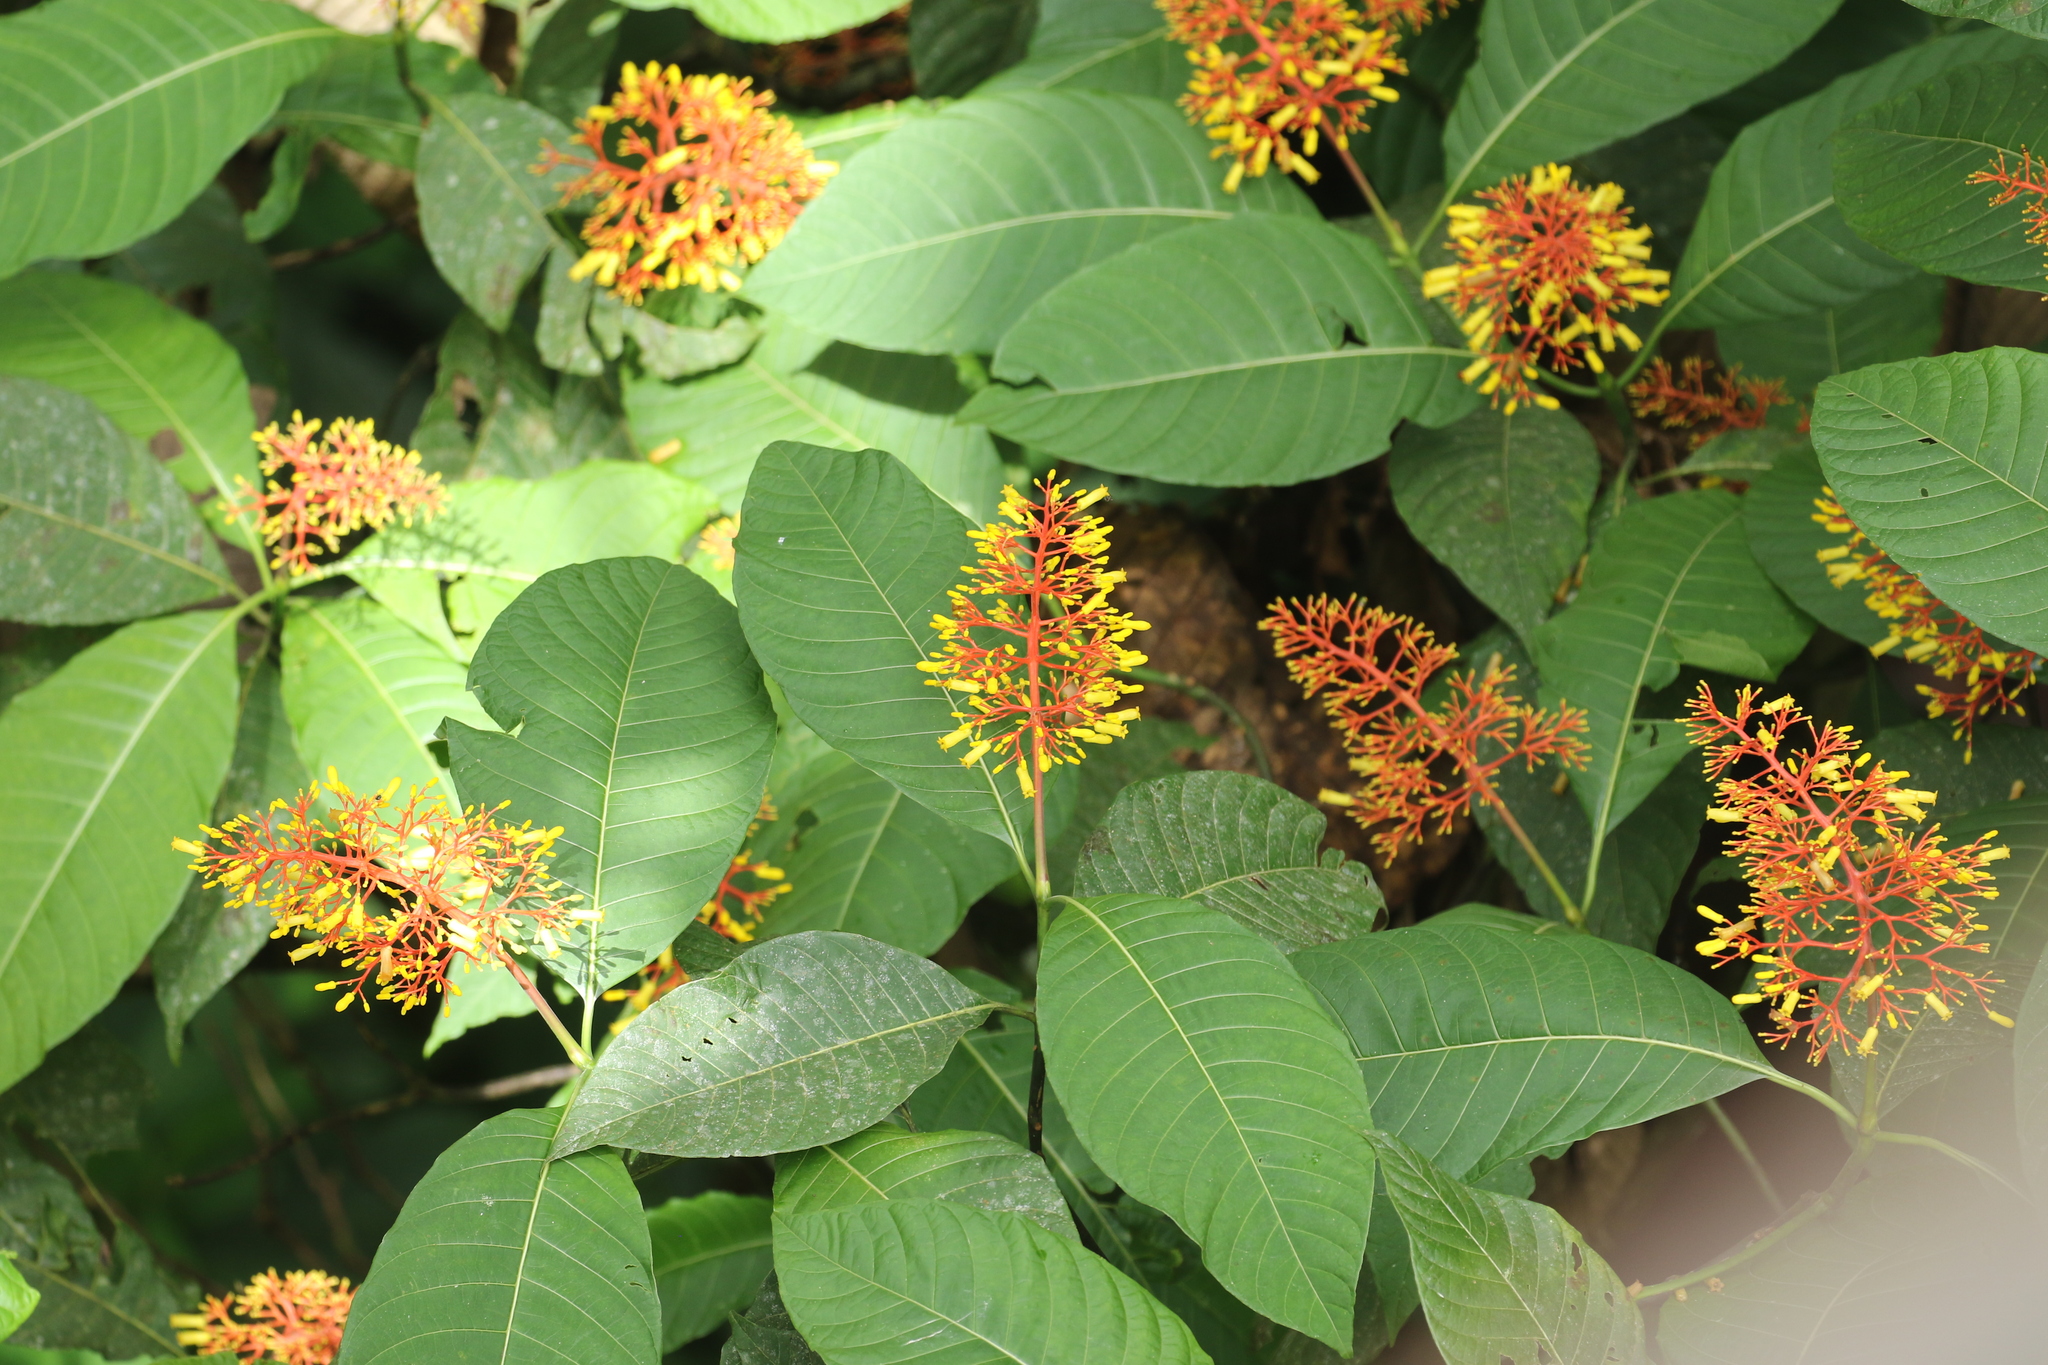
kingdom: Plantae
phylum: Tracheophyta
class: Magnoliopsida
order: Gentianales
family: Rubiaceae
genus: Palicourea
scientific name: Palicourea guianensis
